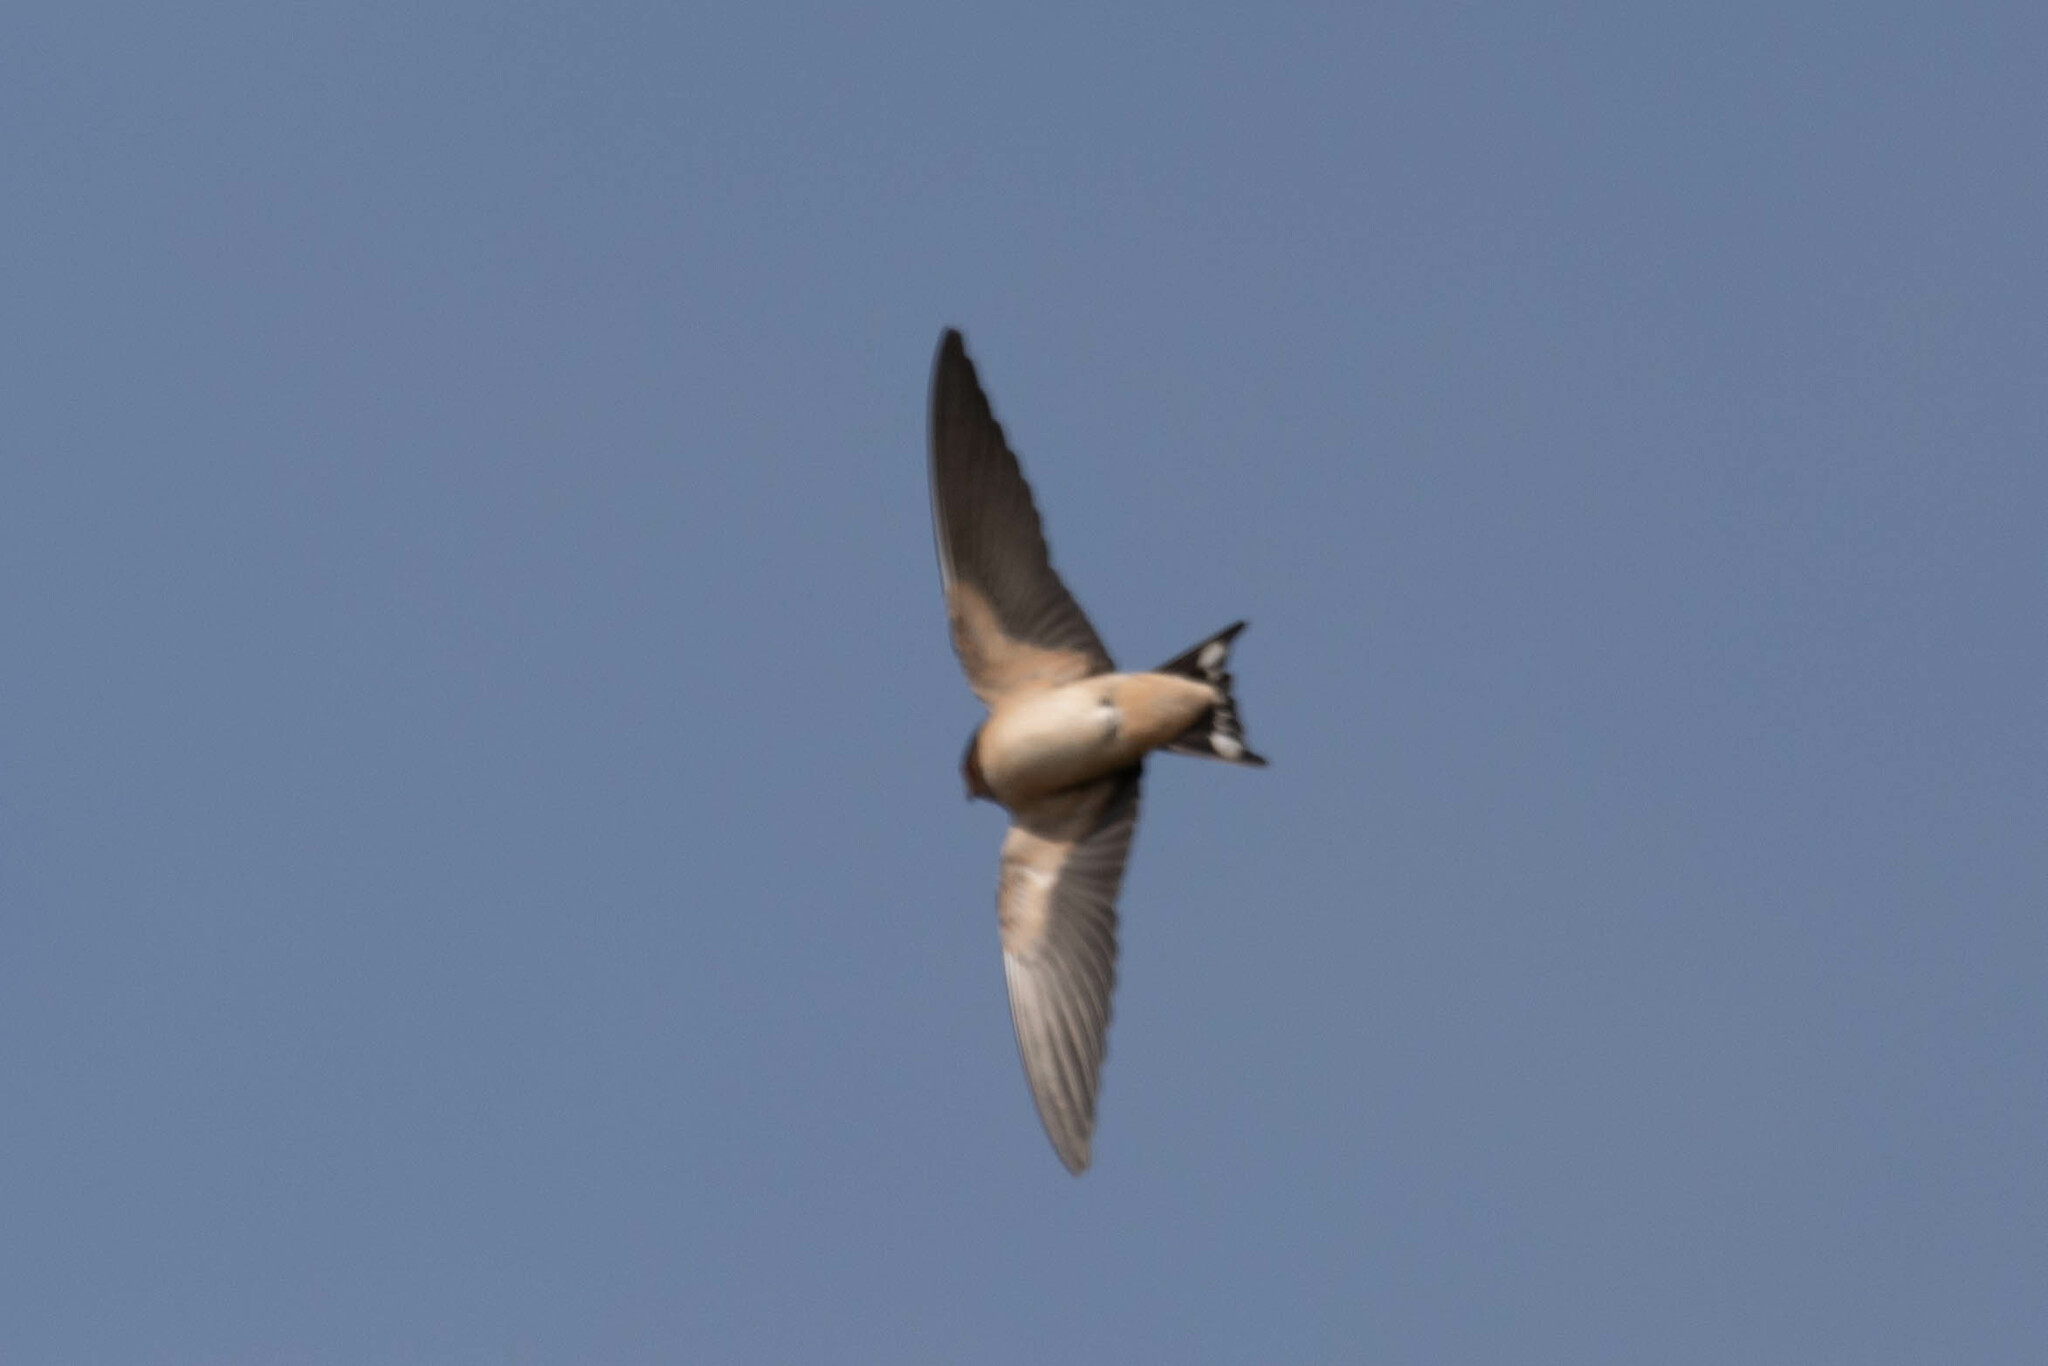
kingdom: Animalia
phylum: Chordata
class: Aves
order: Passeriformes
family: Hirundinidae
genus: Hirundo
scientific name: Hirundo rustica
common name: Barn swallow
